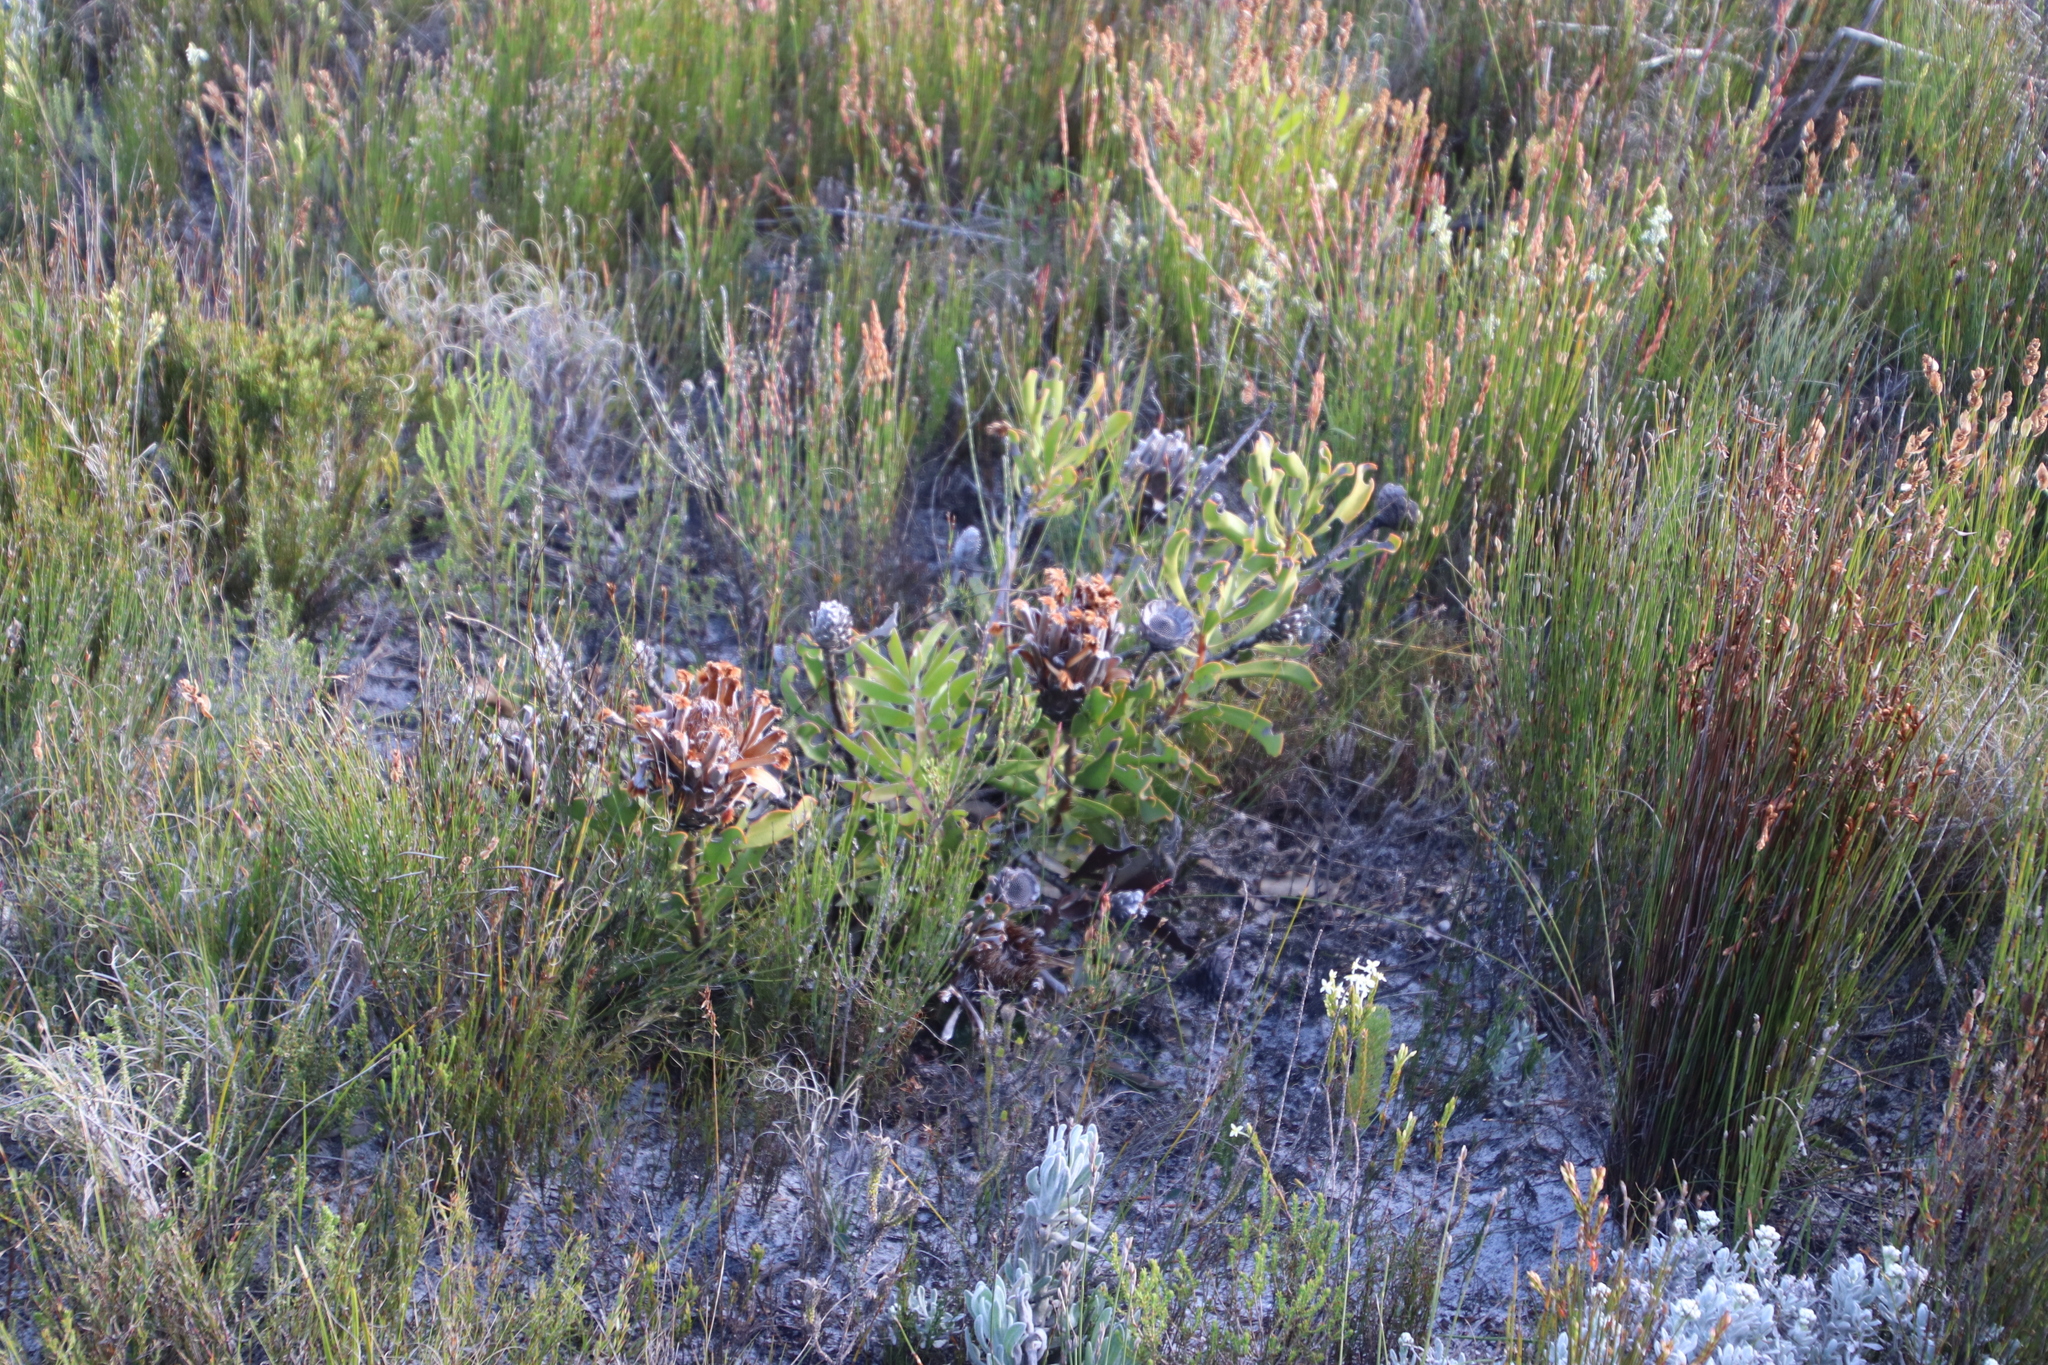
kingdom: Plantae
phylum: Tracheophyta
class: Magnoliopsida
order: Proteales
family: Proteaceae
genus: Protea
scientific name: Protea speciosa
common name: Brown-beard sugarbush
